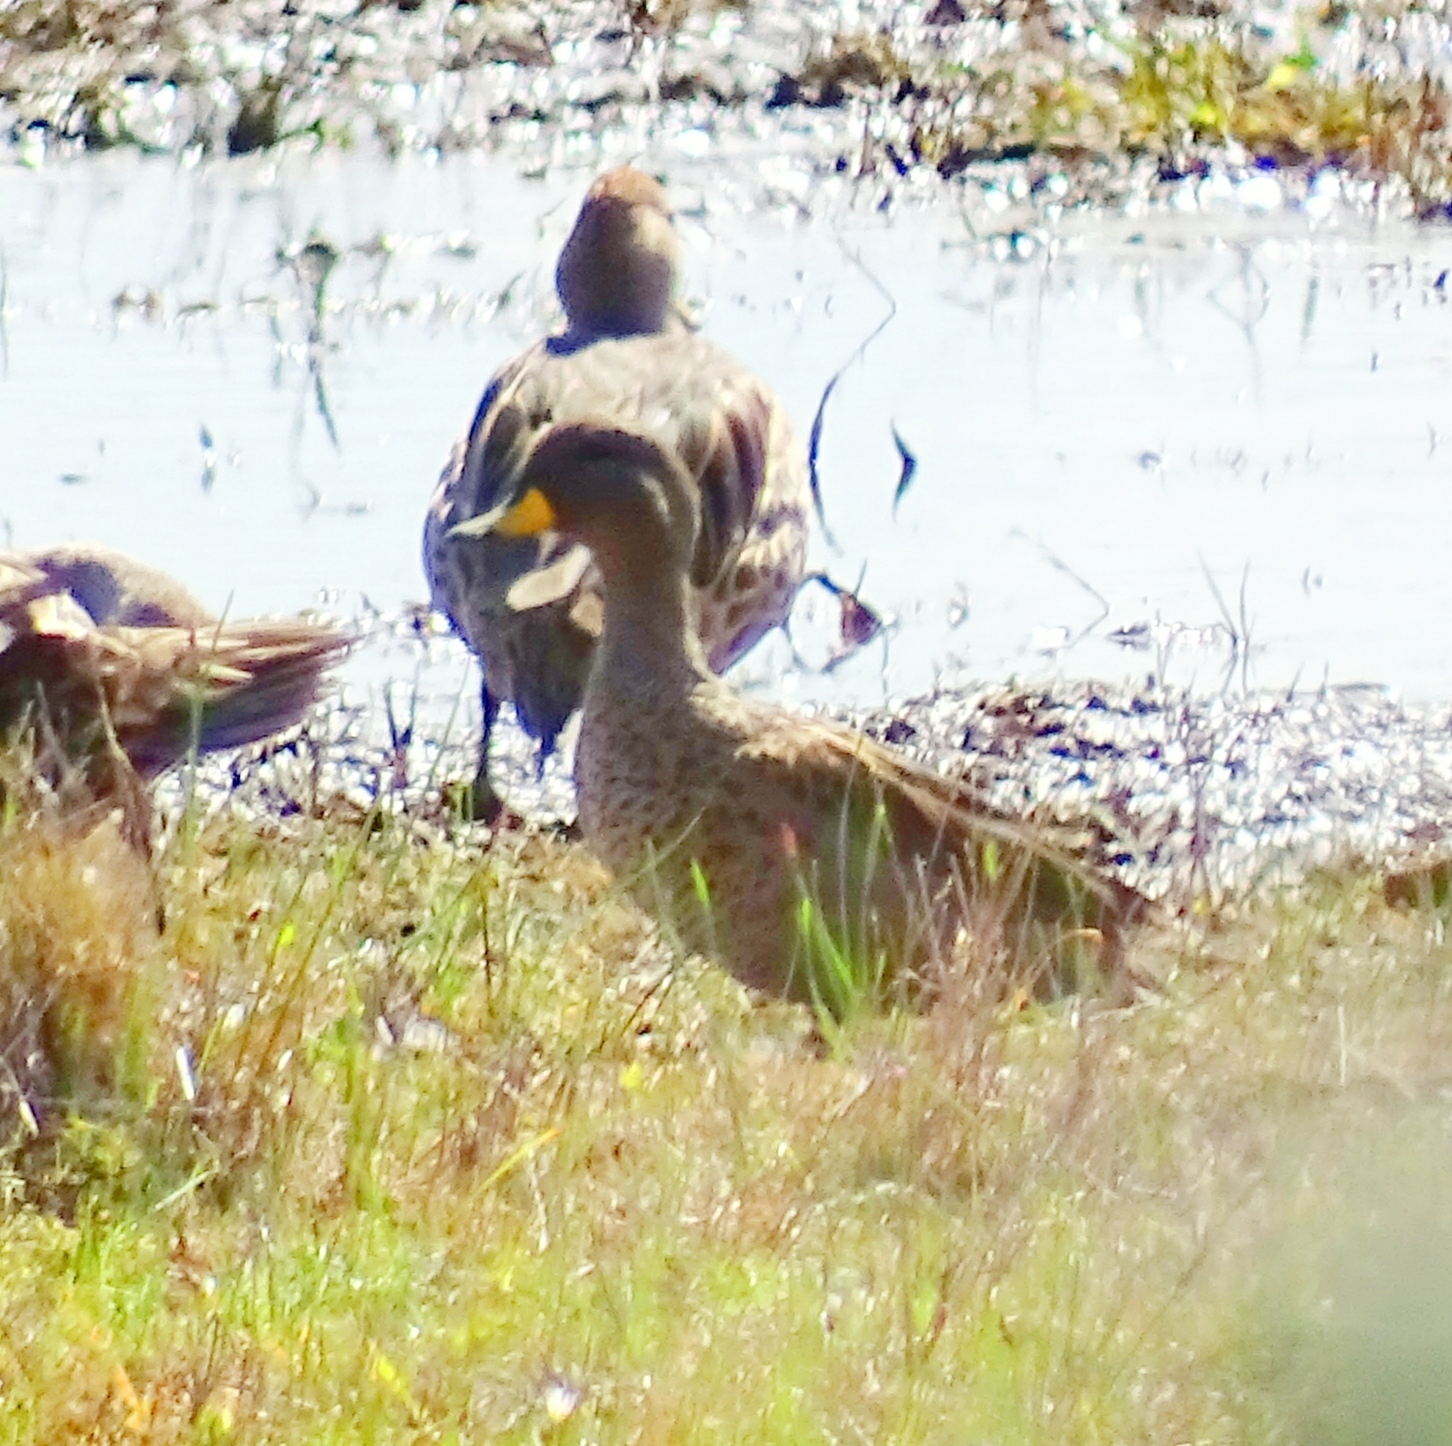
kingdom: Animalia
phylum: Chordata
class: Aves
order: Anseriformes
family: Anatidae
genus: Anas
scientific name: Anas flavirostris
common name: Yellow-billed teal
